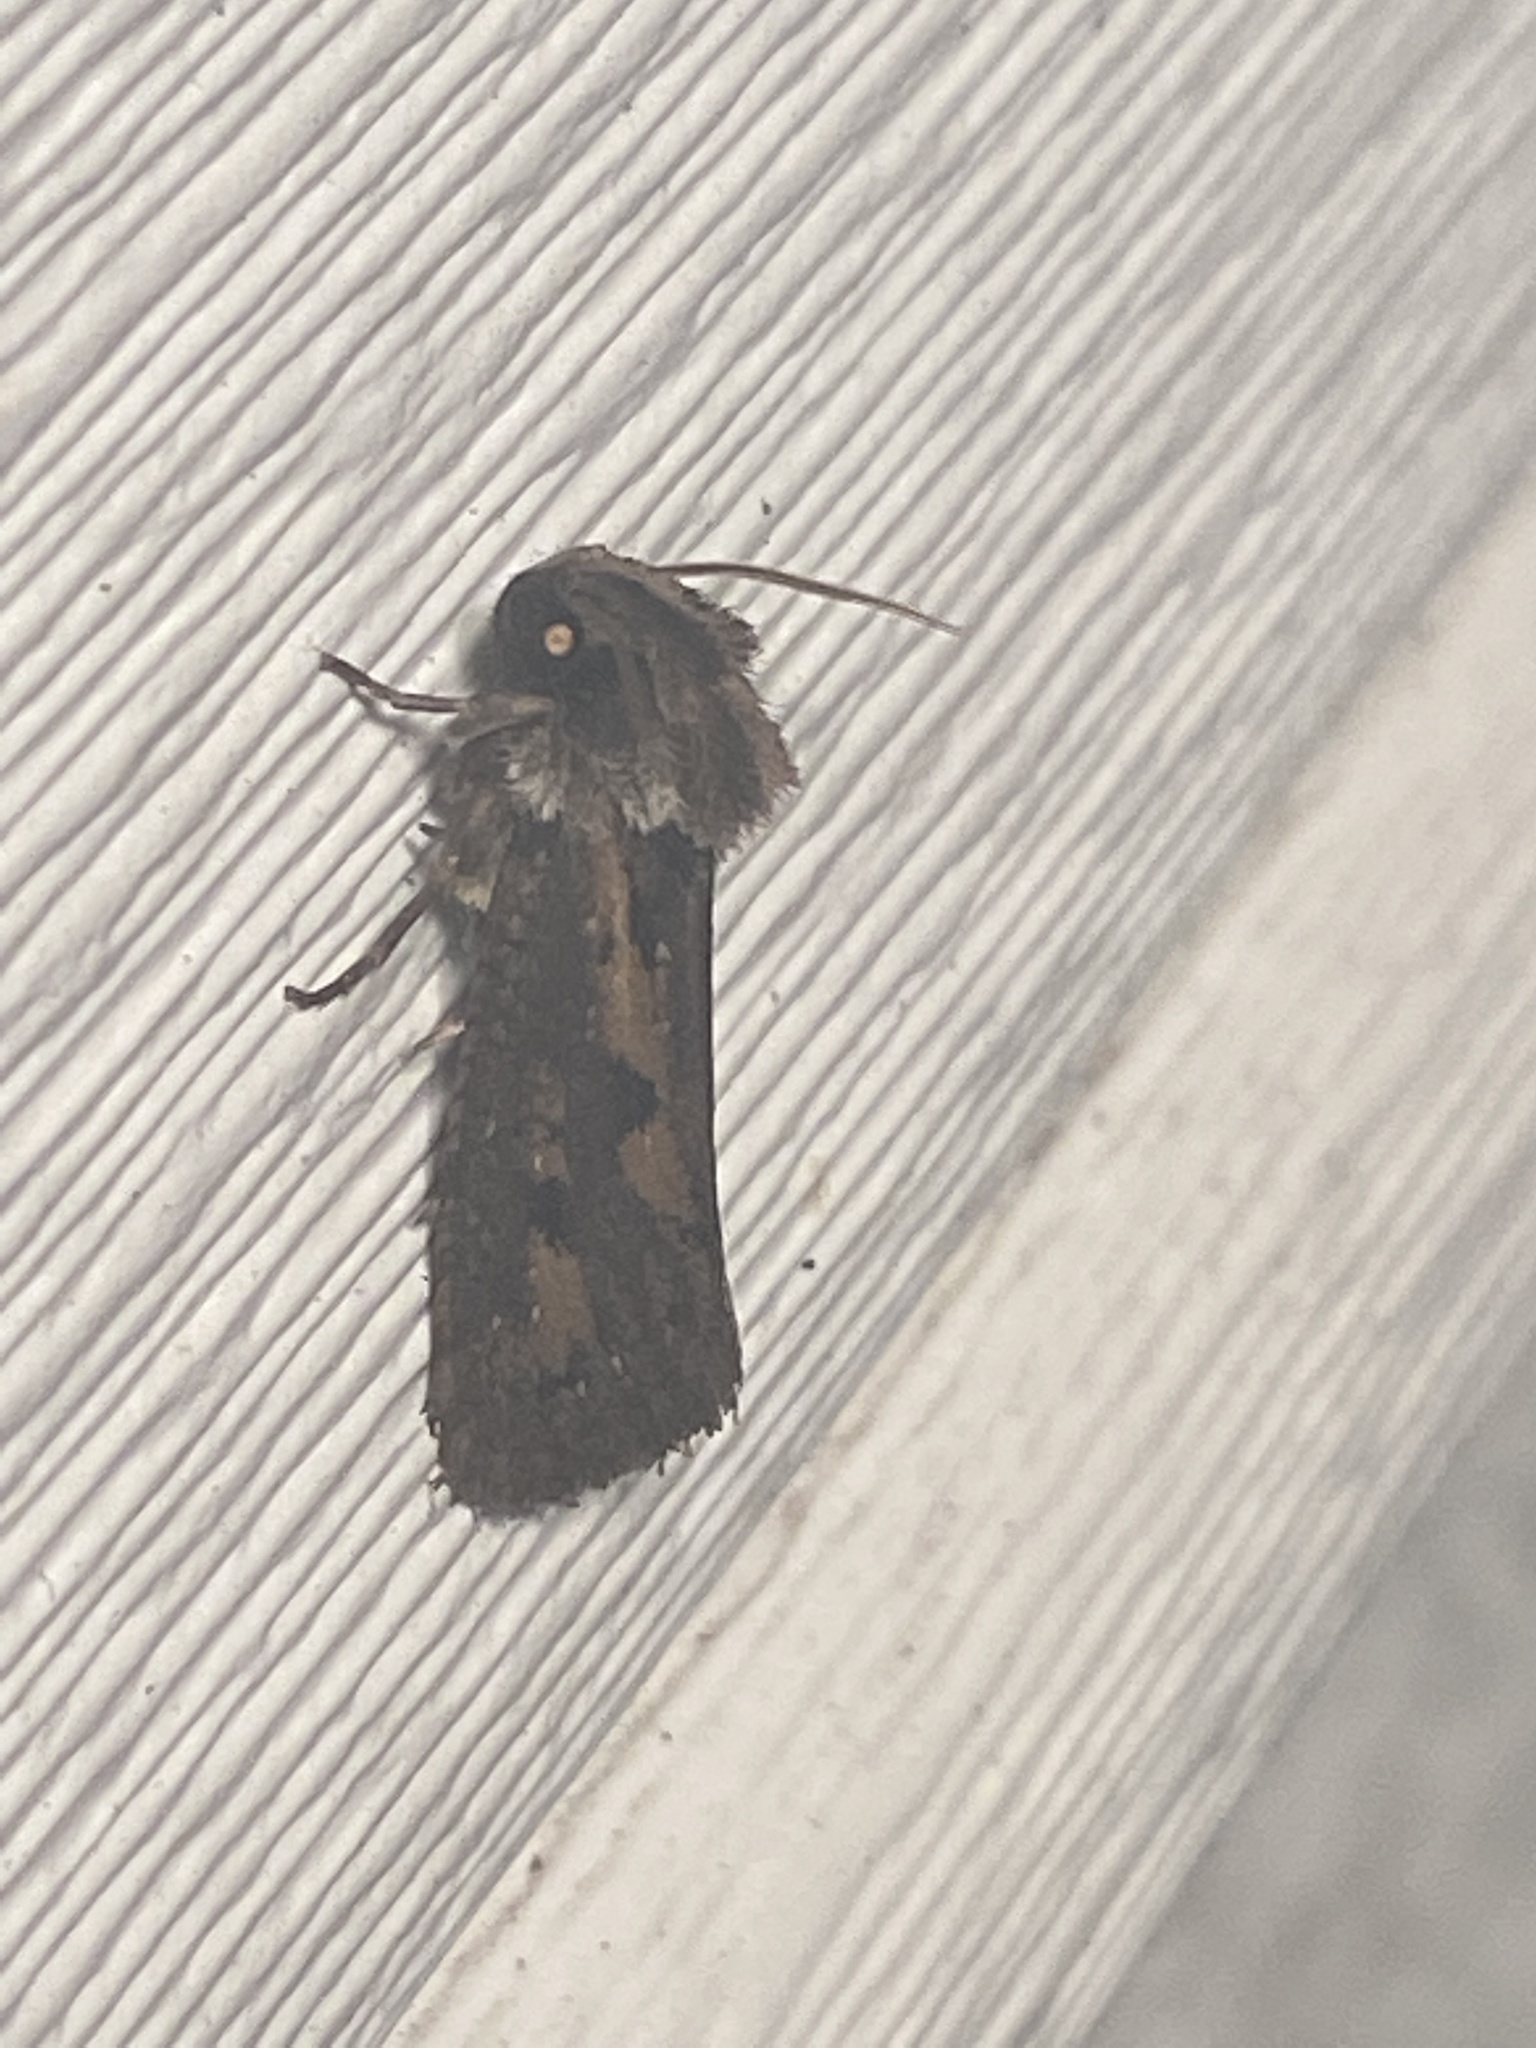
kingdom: Animalia
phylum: Arthropoda
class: Insecta
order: Lepidoptera
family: Tineidae
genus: Acrolophus
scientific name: Acrolophus popeanella
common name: Clemens' grass tubeworm moth
